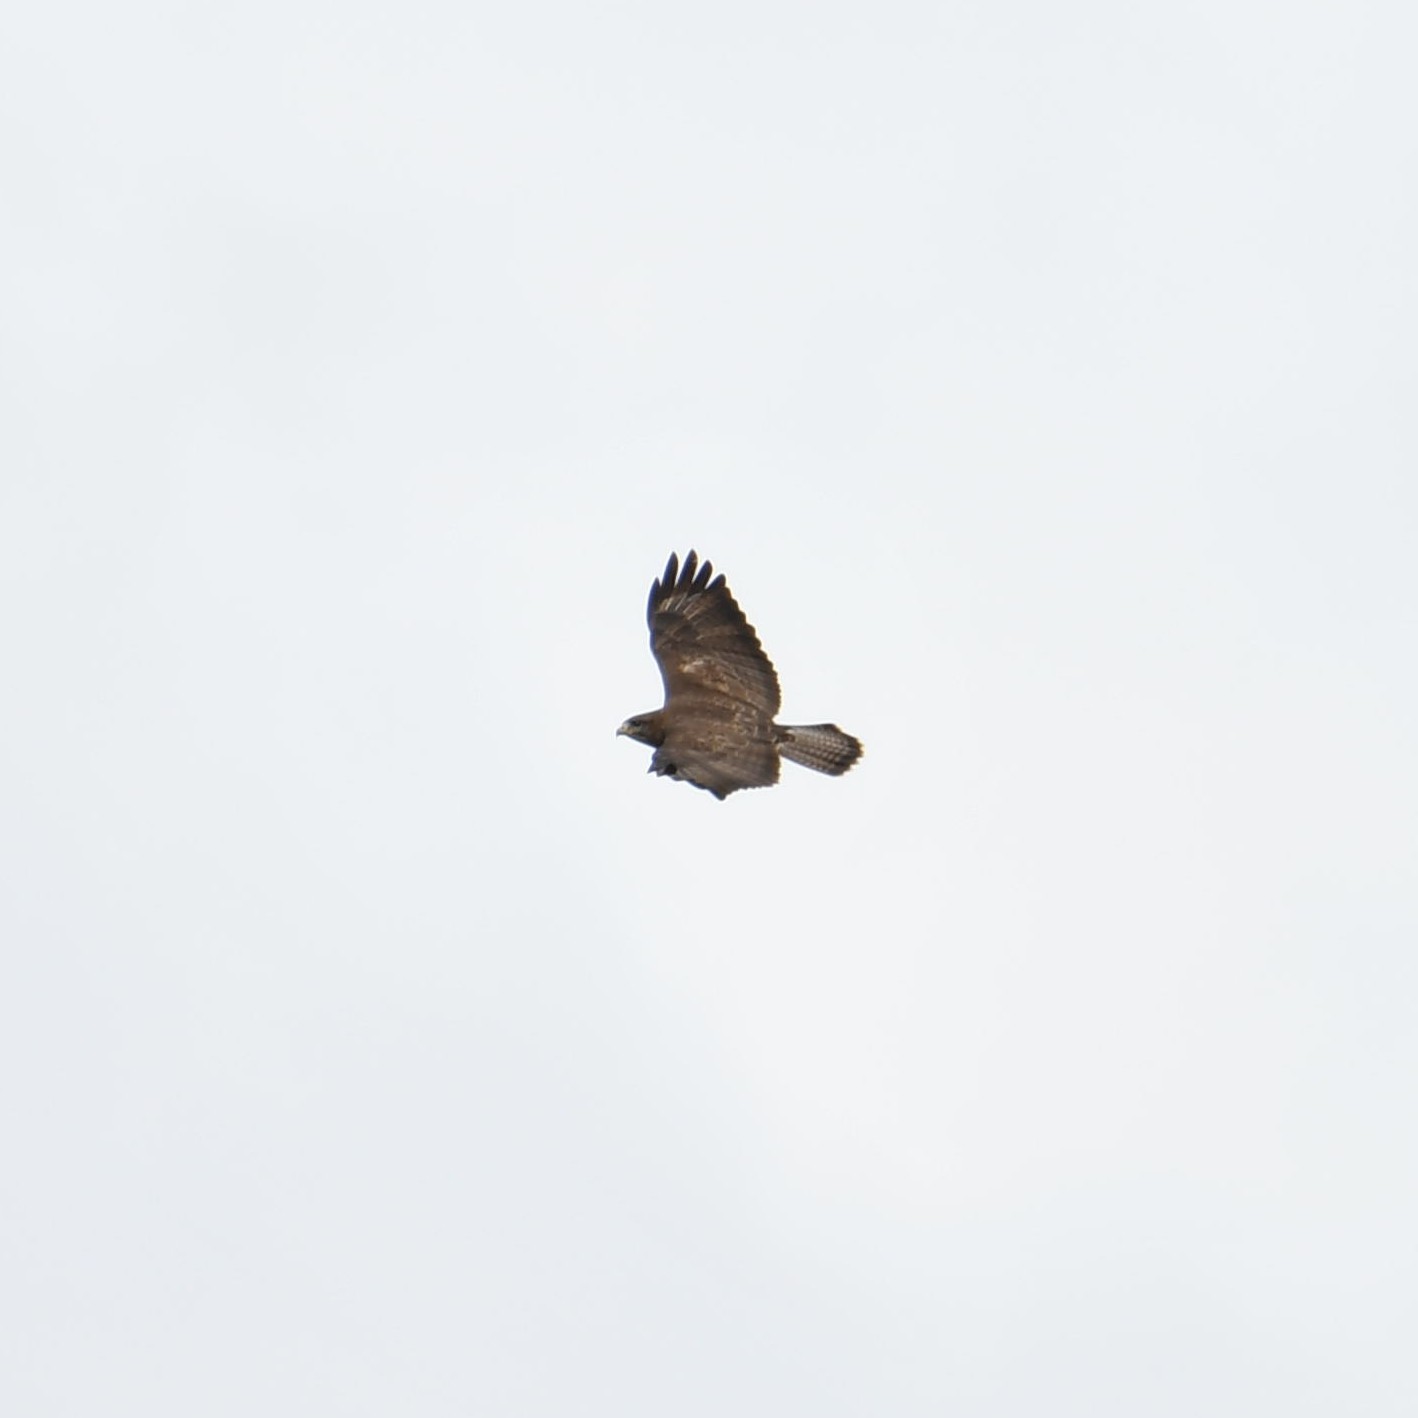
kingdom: Animalia
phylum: Chordata
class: Aves
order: Accipitriformes
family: Accipitridae
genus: Buteo
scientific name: Buteo buteo
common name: Common buzzard
